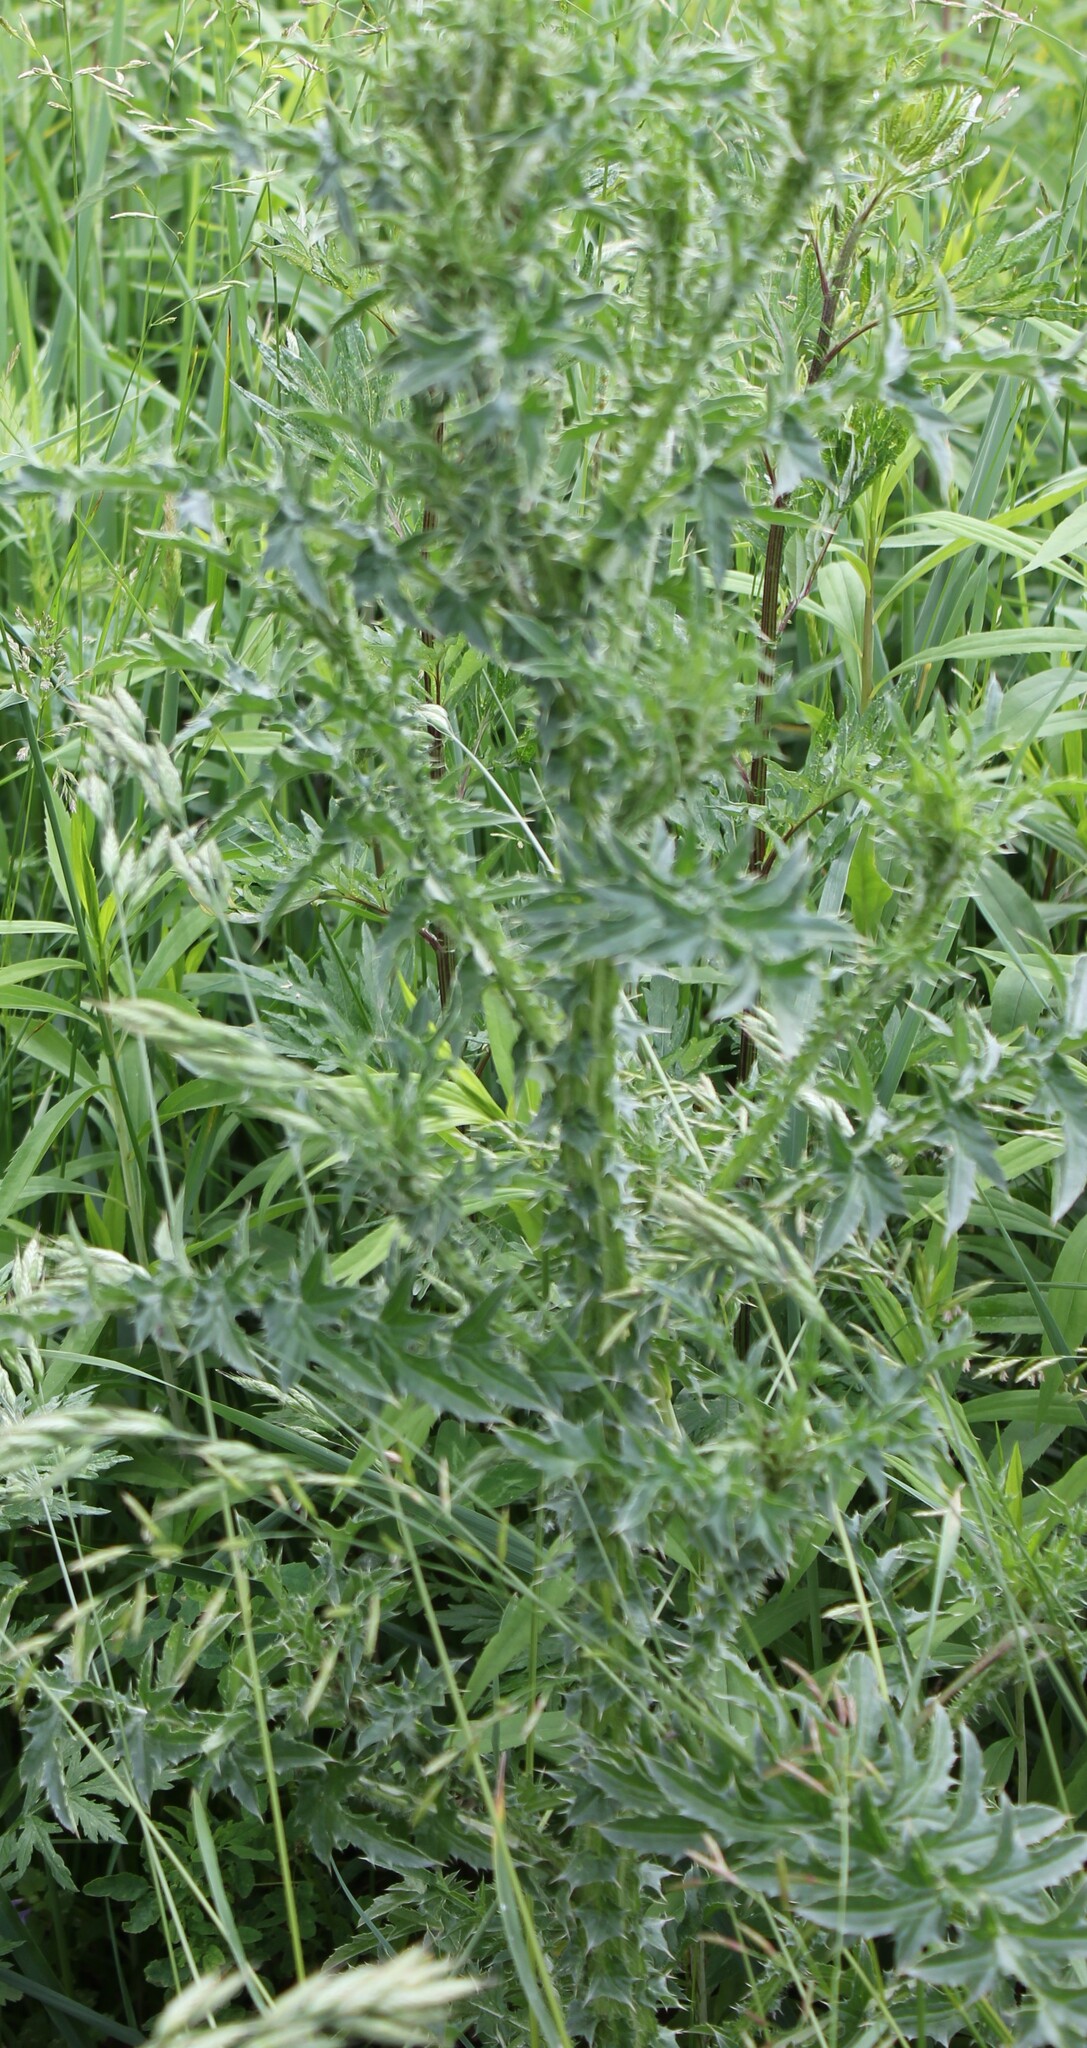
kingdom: Plantae
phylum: Tracheophyta
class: Magnoliopsida
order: Asterales
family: Asteraceae
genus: Carduus
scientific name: Carduus acanthoides
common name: Plumeless thistle
